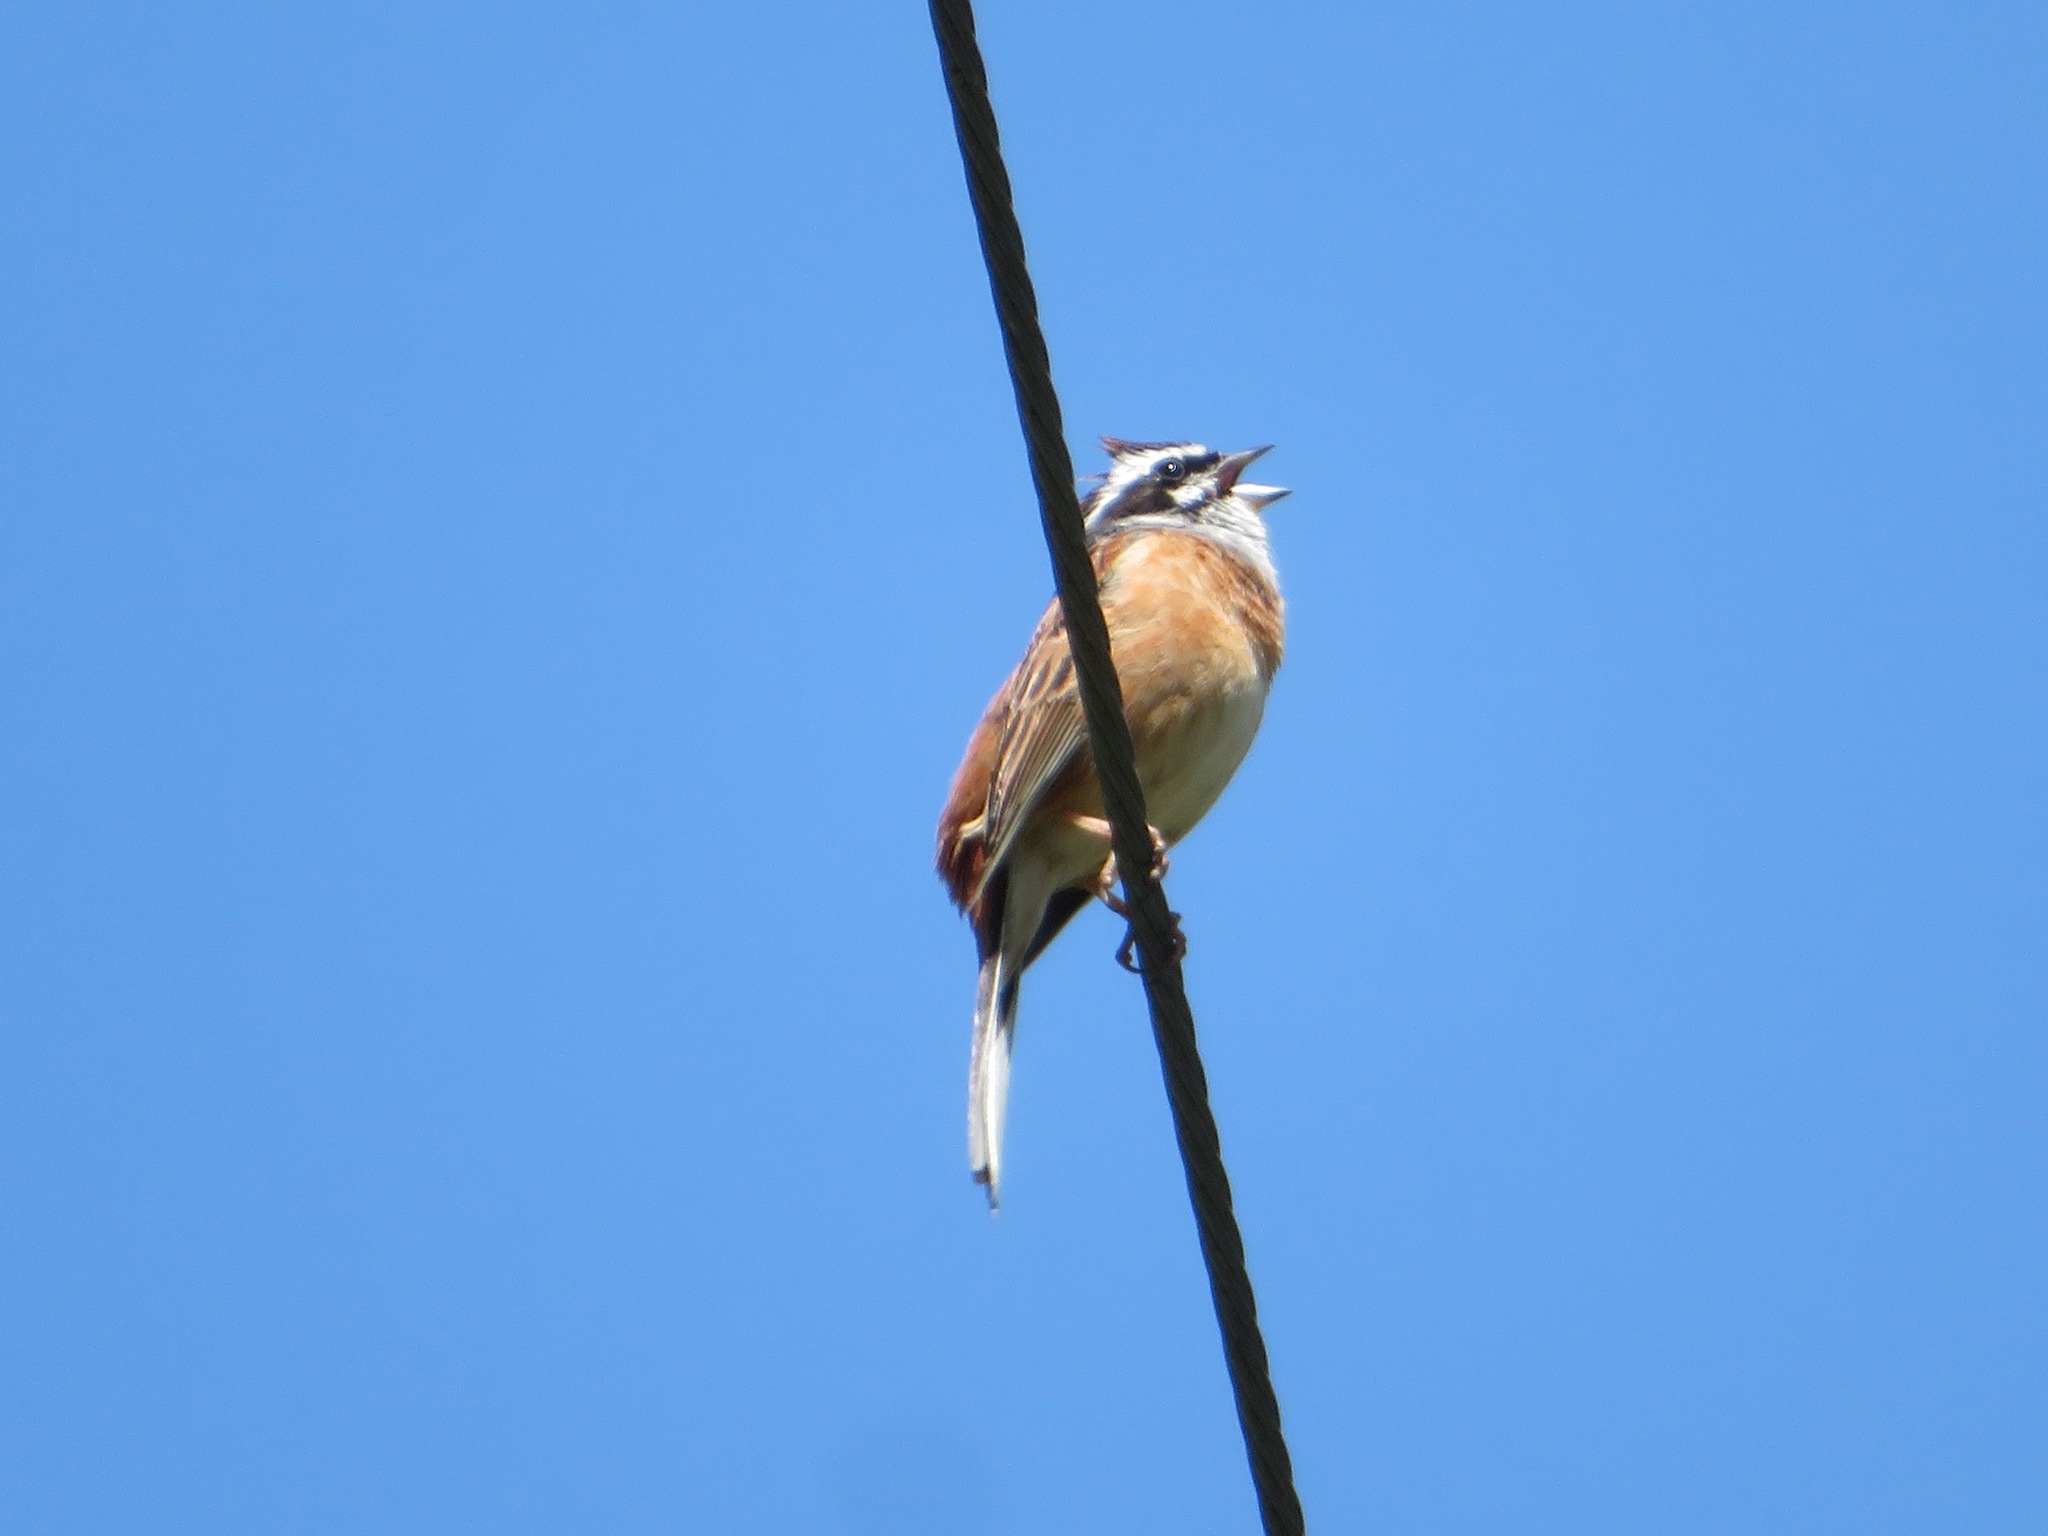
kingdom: Animalia
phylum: Chordata
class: Aves
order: Passeriformes
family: Emberizidae
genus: Emberiza
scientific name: Emberiza cioides
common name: Meadow bunting
